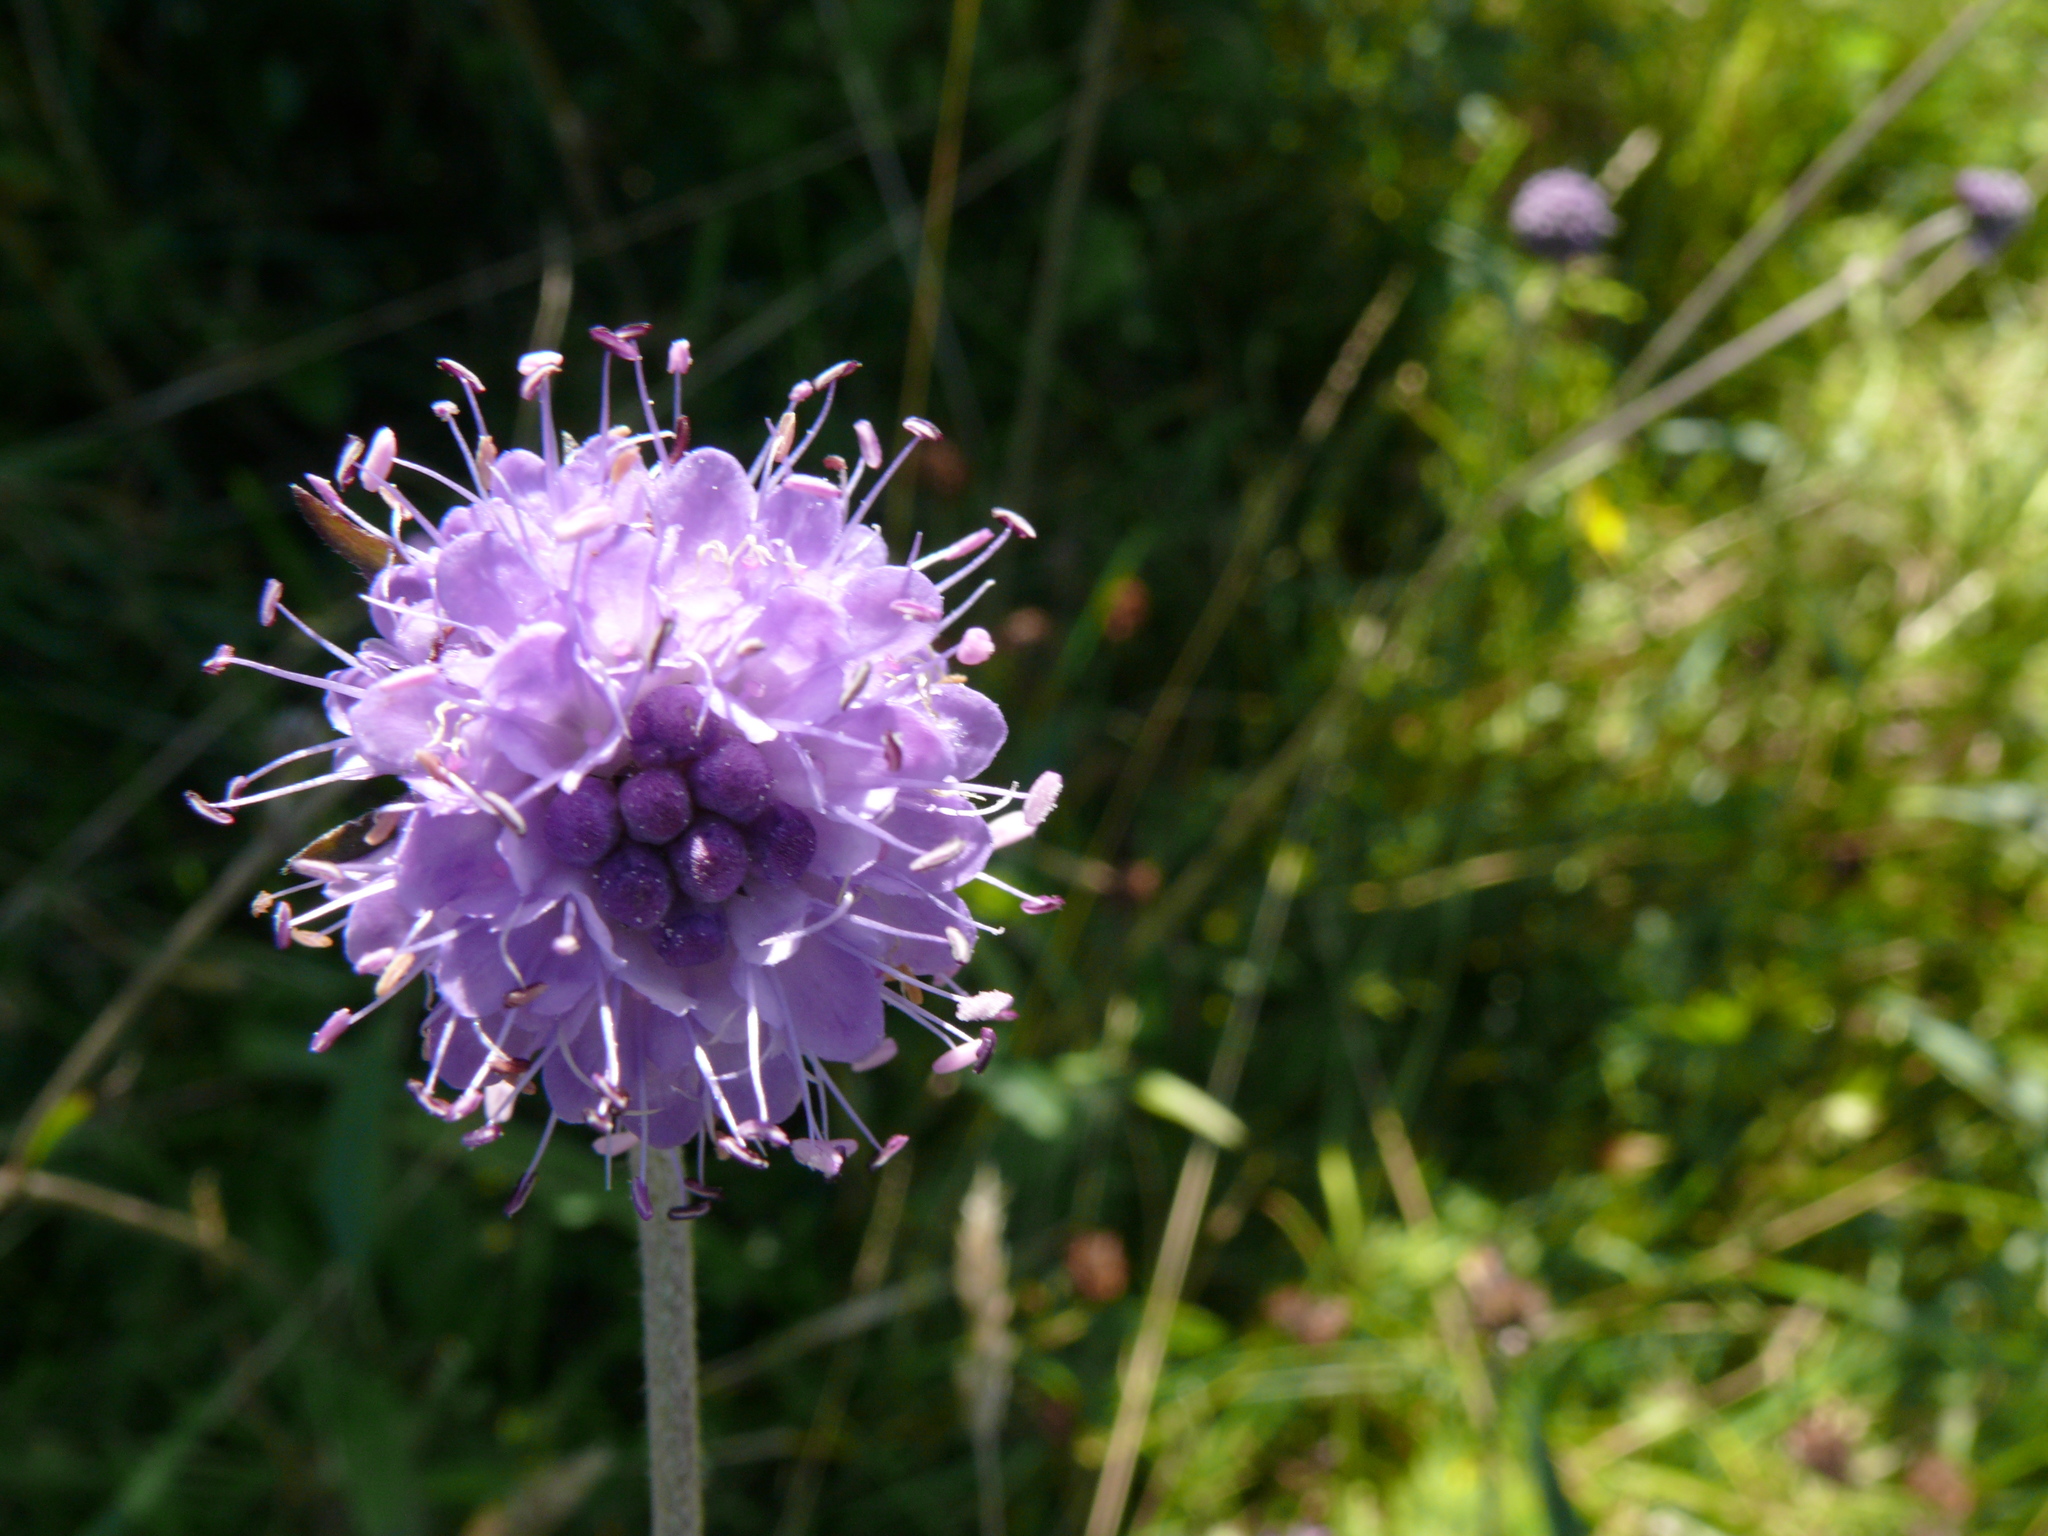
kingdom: Plantae
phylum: Tracheophyta
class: Magnoliopsida
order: Dipsacales
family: Caprifoliaceae
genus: Succisa
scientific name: Succisa pratensis
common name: Devil's-bit
